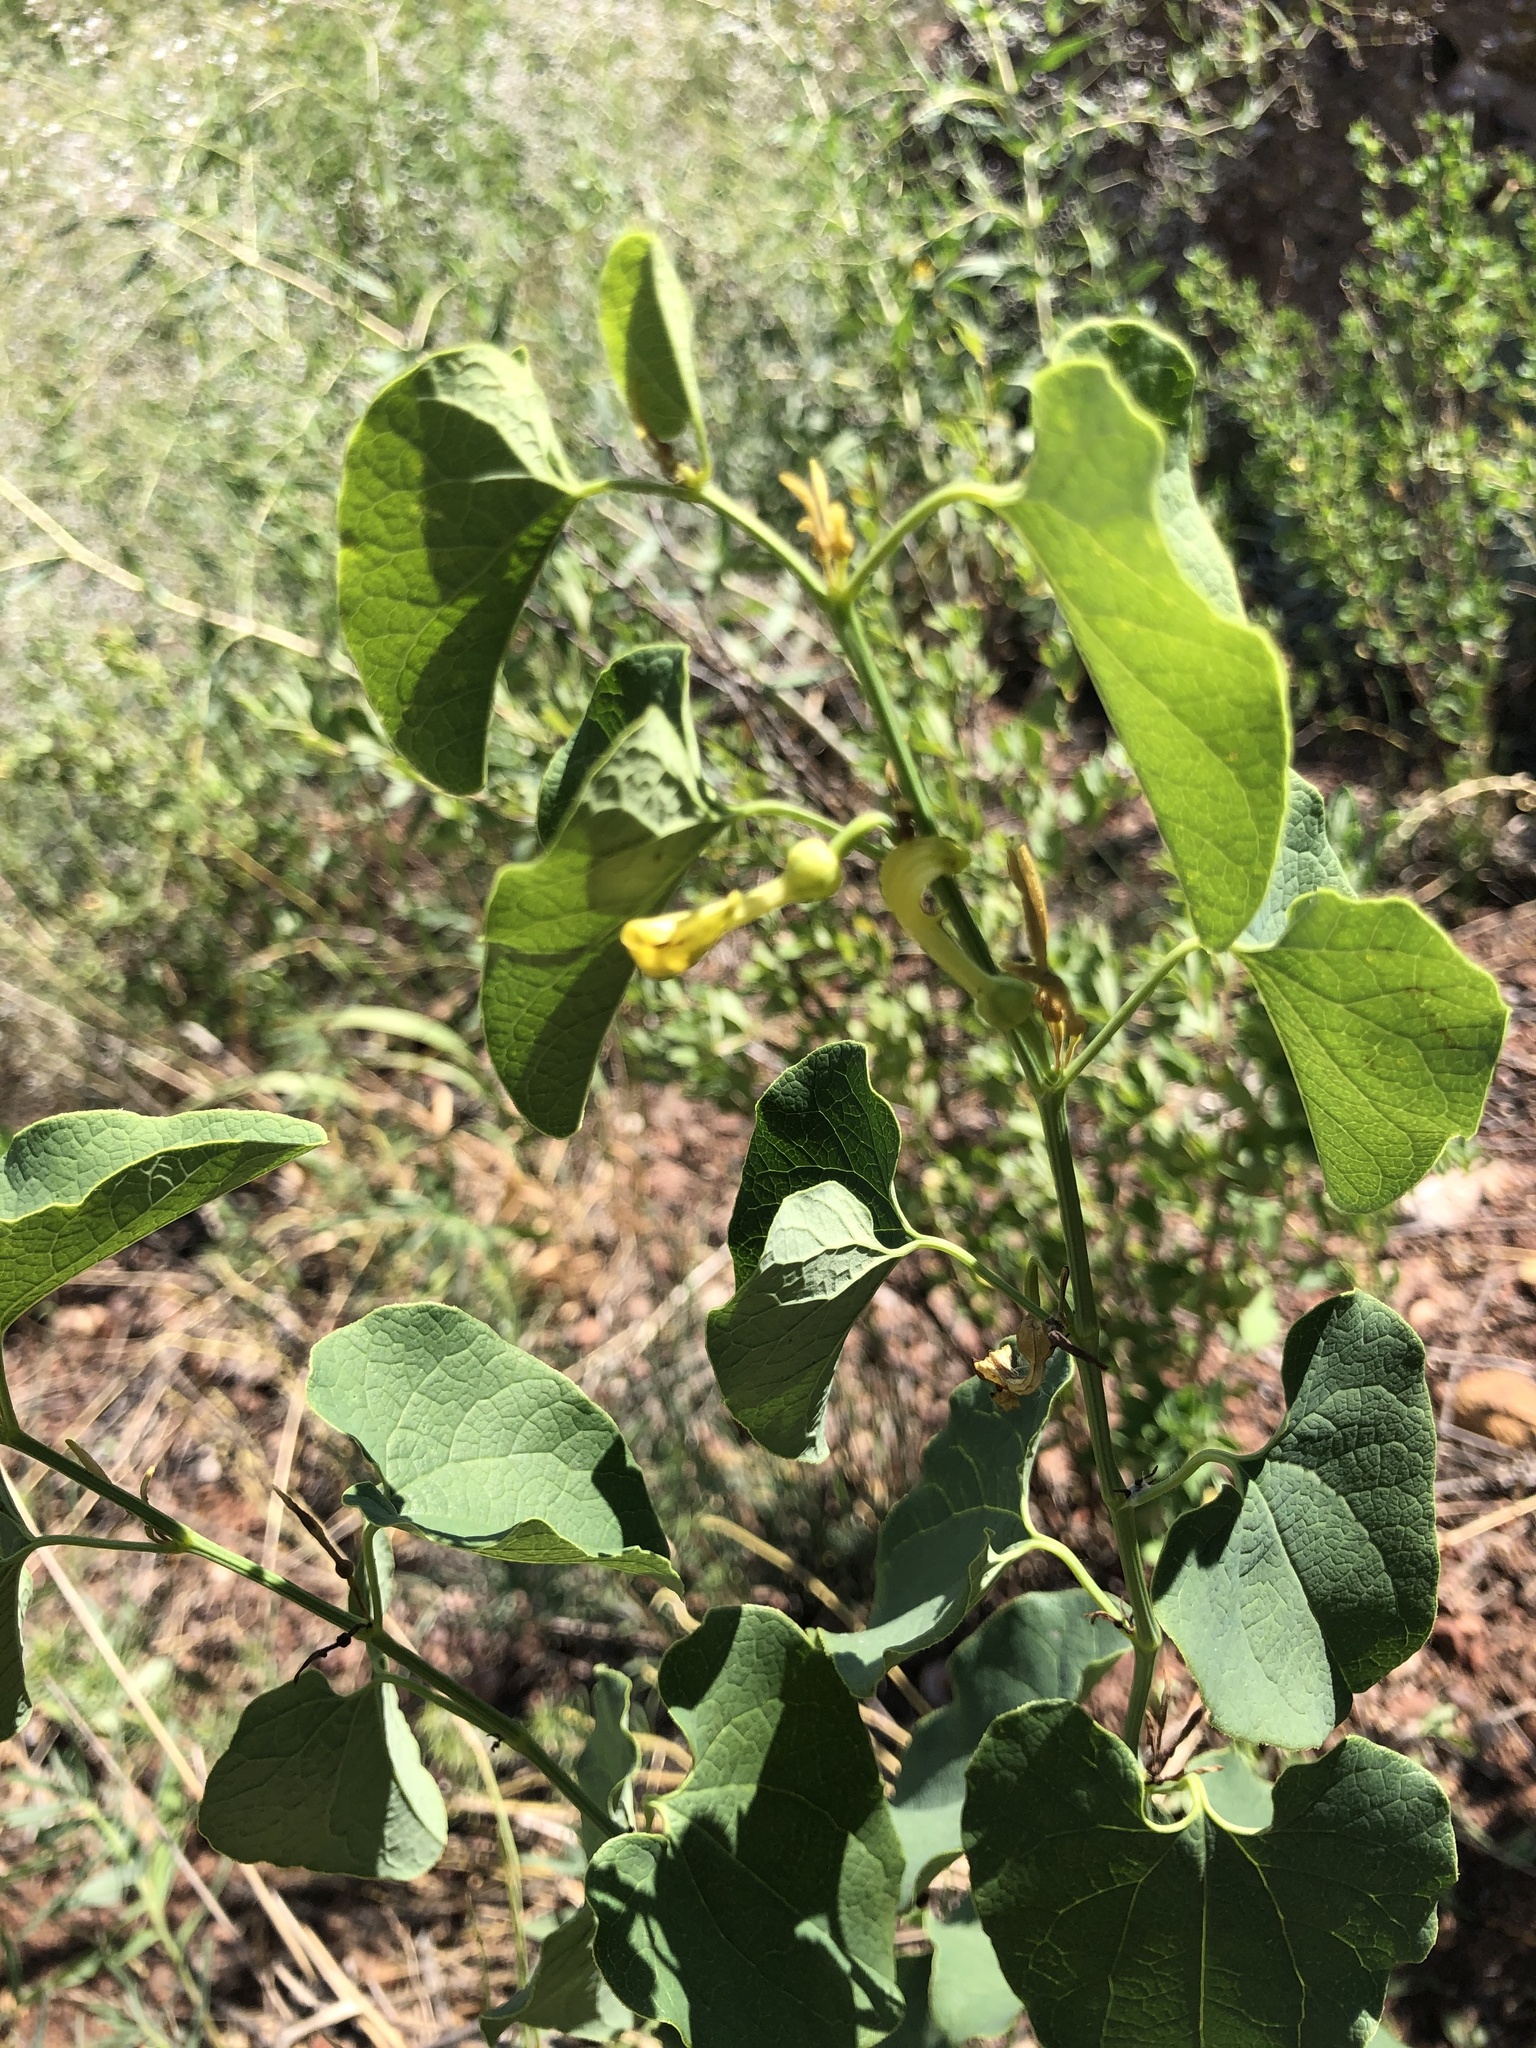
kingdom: Plantae
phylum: Tracheophyta
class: Magnoliopsida
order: Piperales
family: Aristolochiaceae
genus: Aristolochia
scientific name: Aristolochia clematitis
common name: Birthwort
